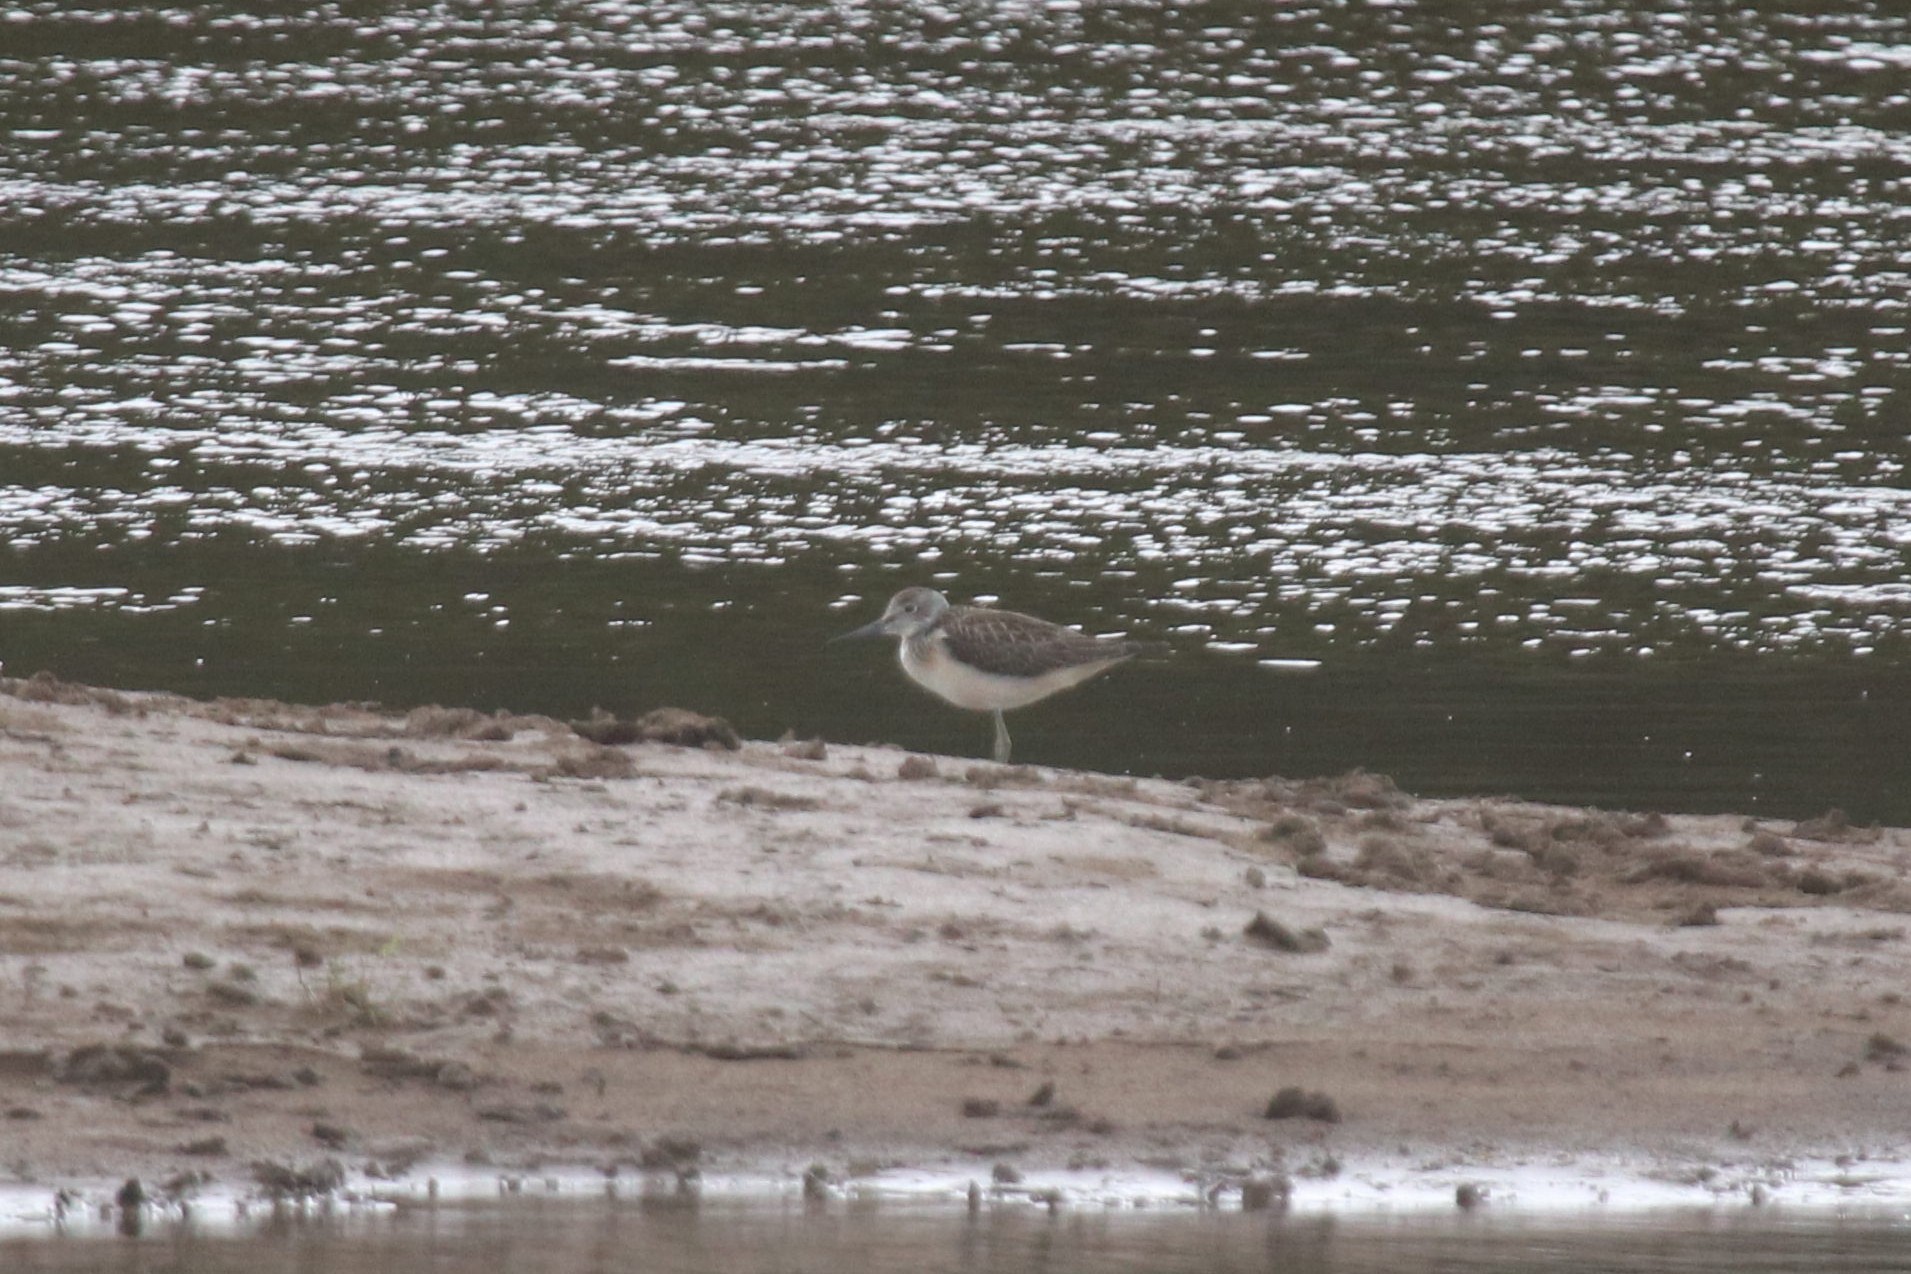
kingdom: Animalia
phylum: Chordata
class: Aves
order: Charadriiformes
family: Scolopacidae
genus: Tringa
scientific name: Tringa nebularia
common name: Common greenshank
